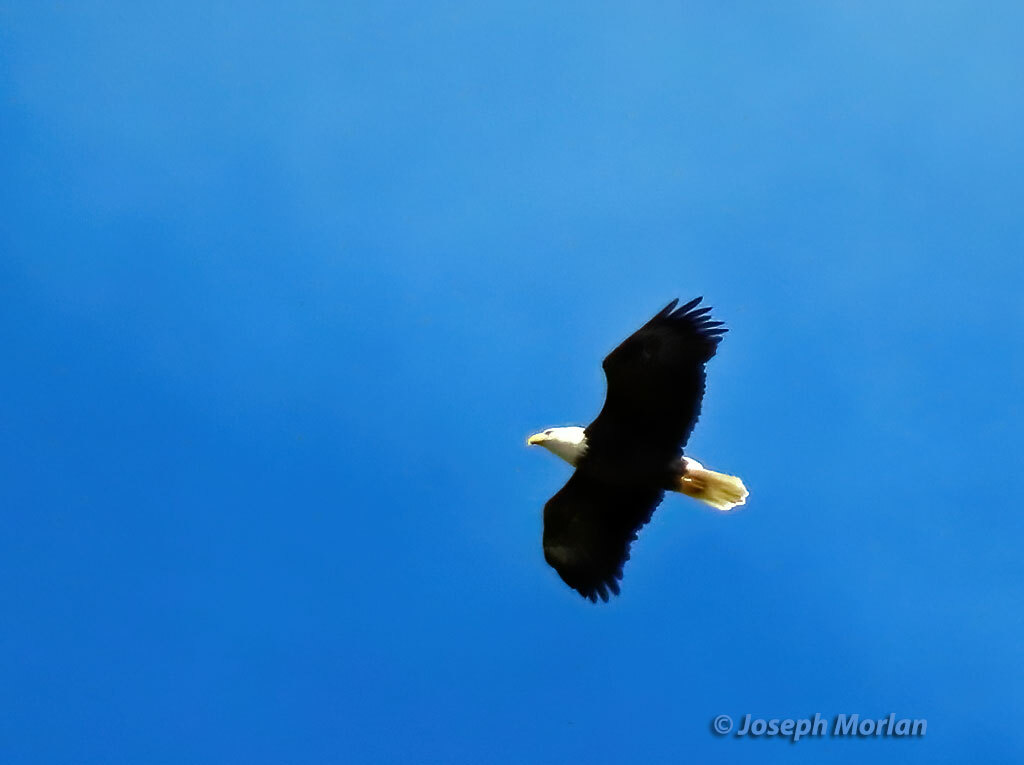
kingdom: Animalia
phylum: Chordata
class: Aves
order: Accipitriformes
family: Accipitridae
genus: Haliaeetus
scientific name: Haliaeetus leucocephalus
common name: Bald eagle
